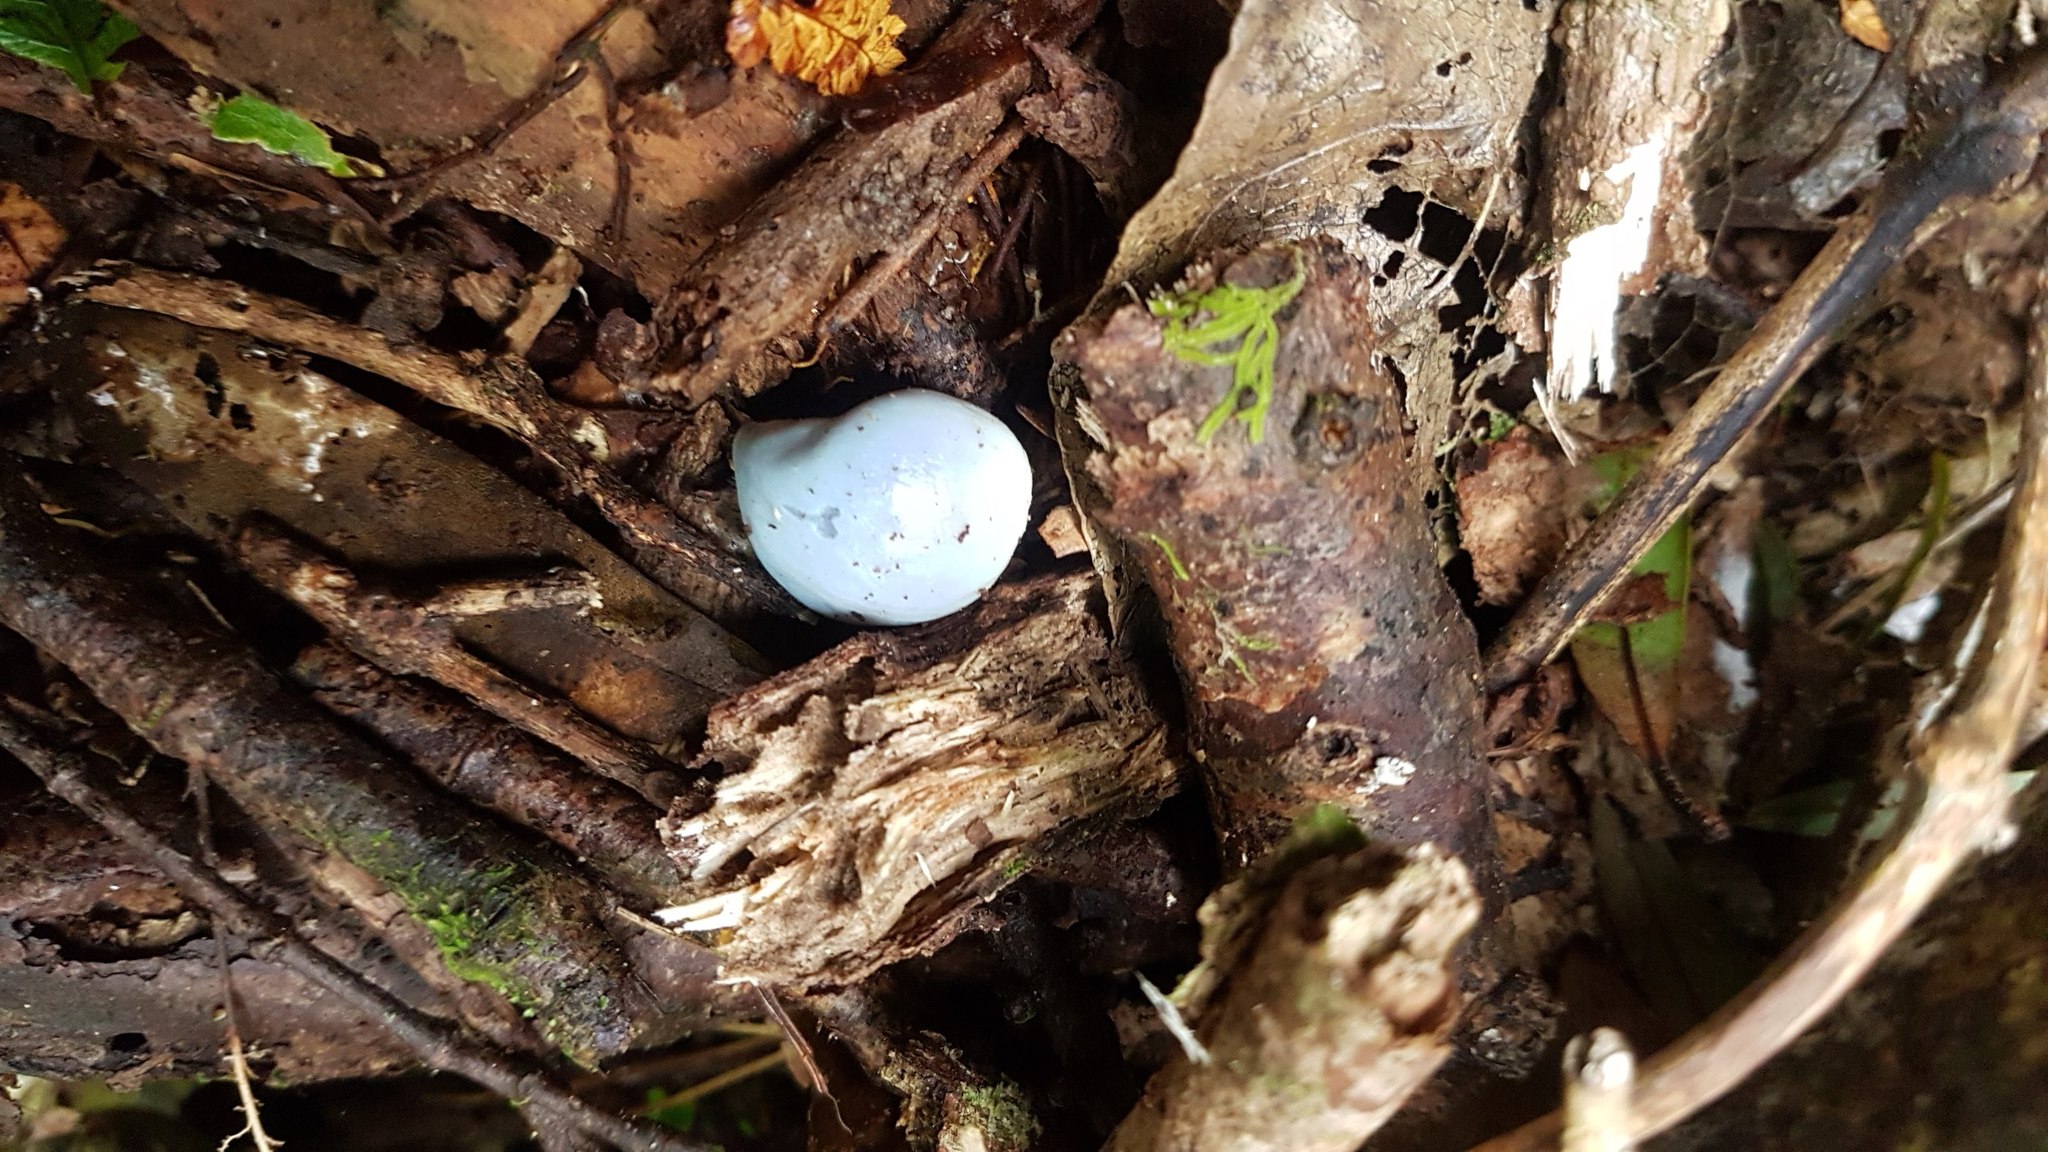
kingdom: Fungi
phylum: Basidiomycota
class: Agaricomycetes
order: Agaricales
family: Agaricaceae
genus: Clavogaster
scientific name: Clavogaster virescens
